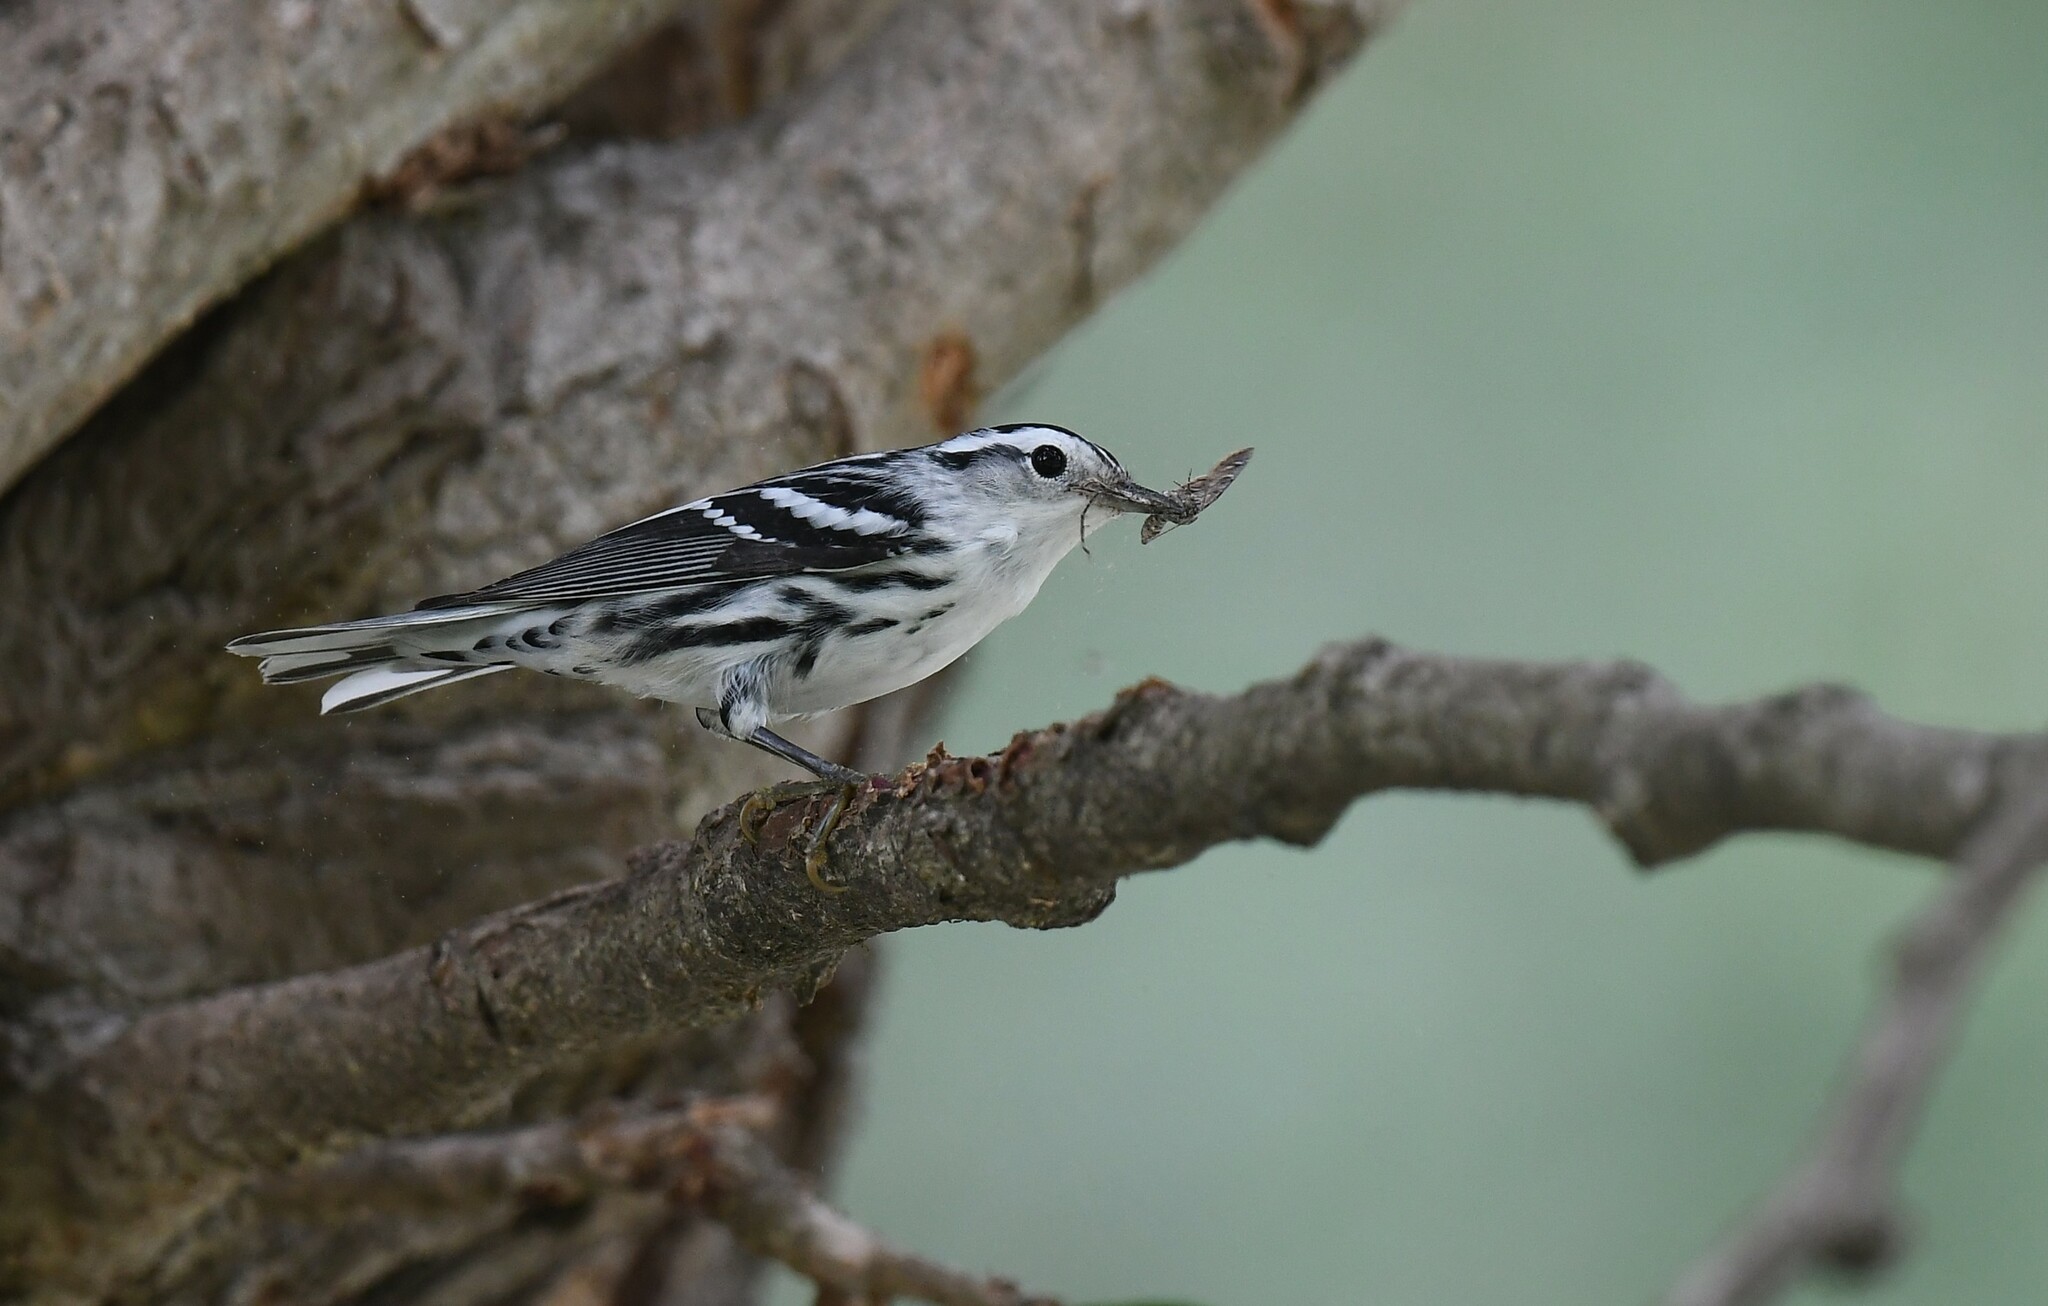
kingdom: Animalia
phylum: Chordata
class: Aves
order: Passeriformes
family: Parulidae
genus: Mniotilta
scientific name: Mniotilta varia
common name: Black-and-white warbler
